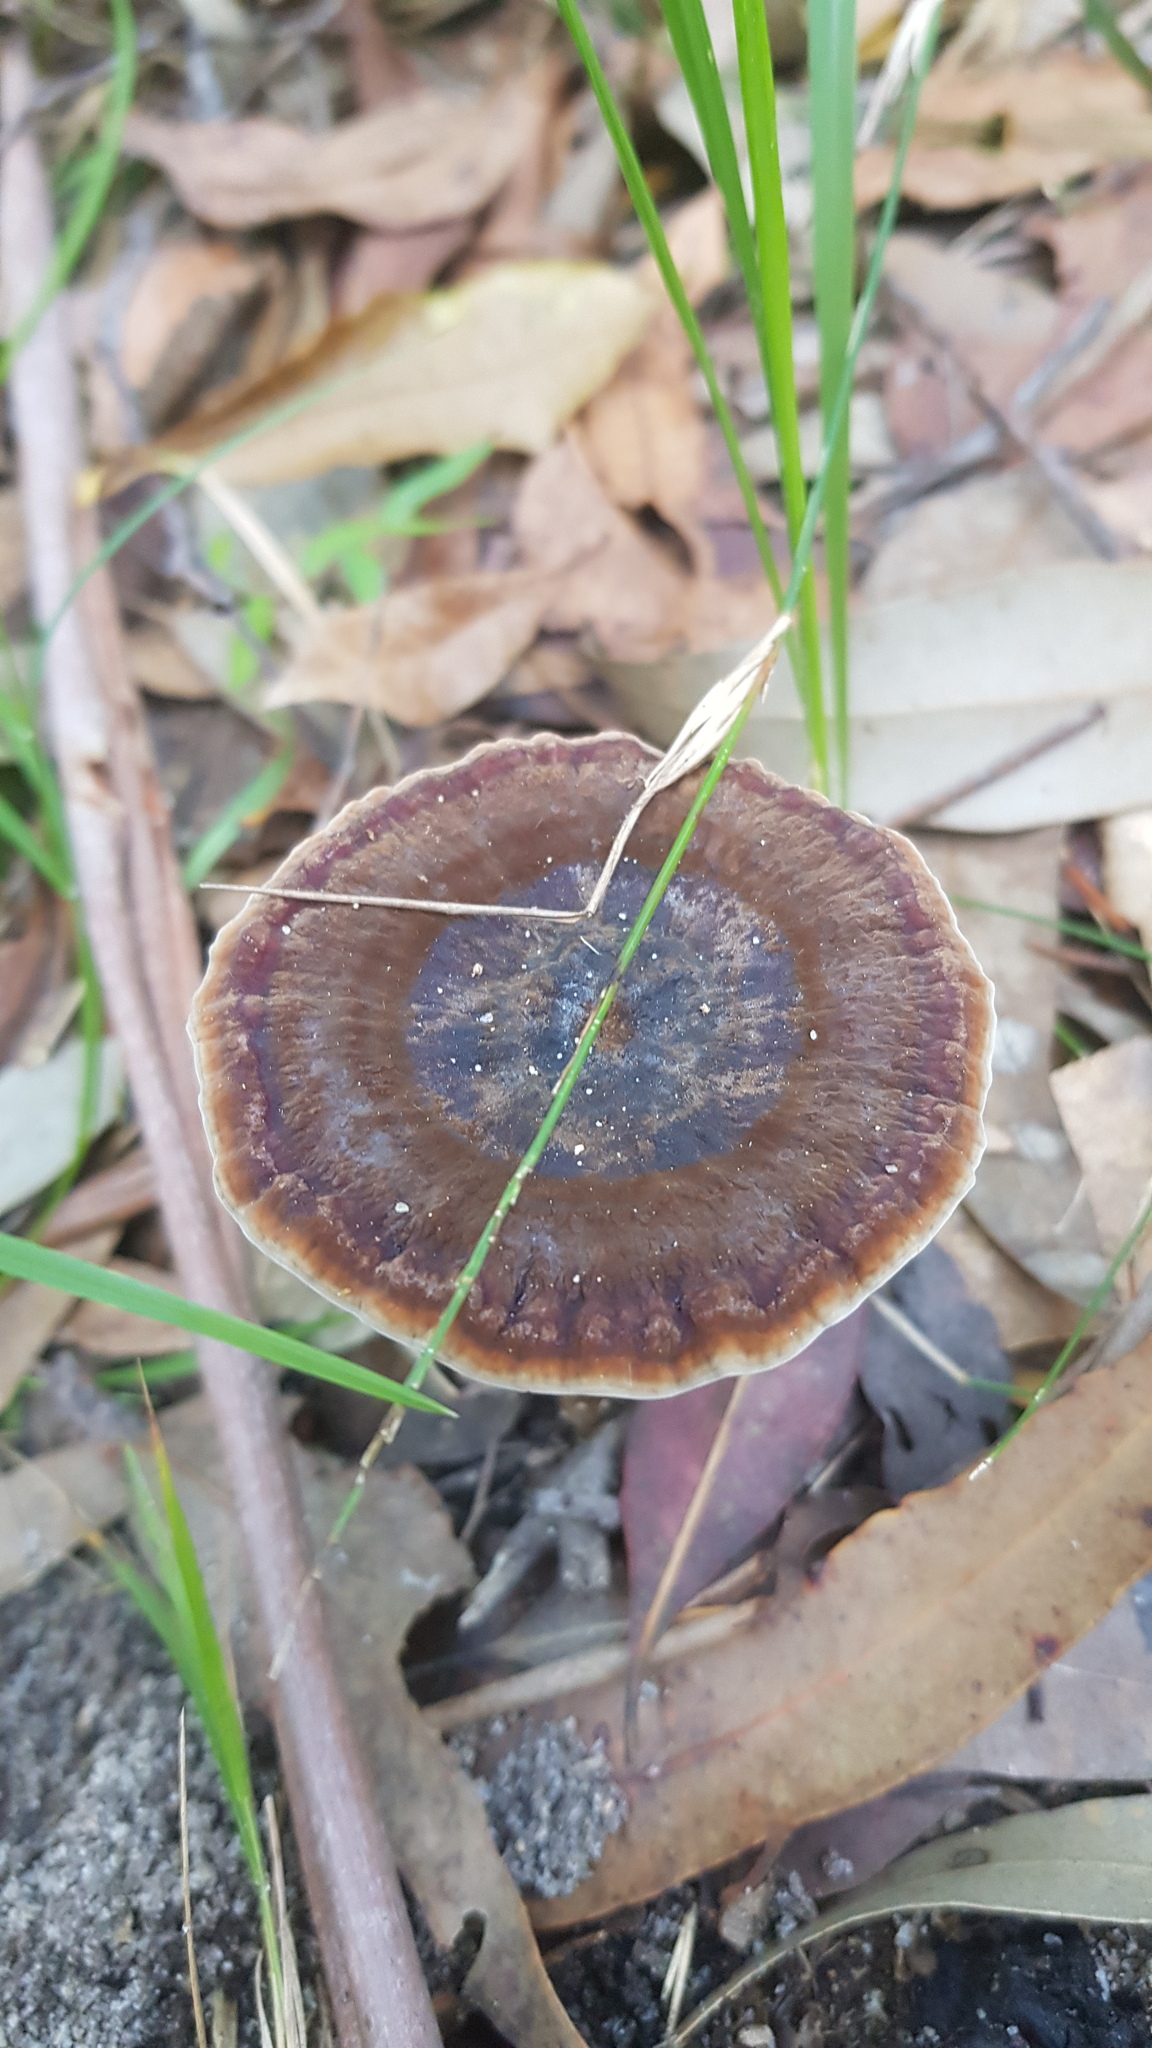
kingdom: Fungi
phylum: Basidiomycota
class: Agaricomycetes
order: Polyporales
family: Ganodermataceae
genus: Sanguinoderma
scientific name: Sanguinoderma rude
